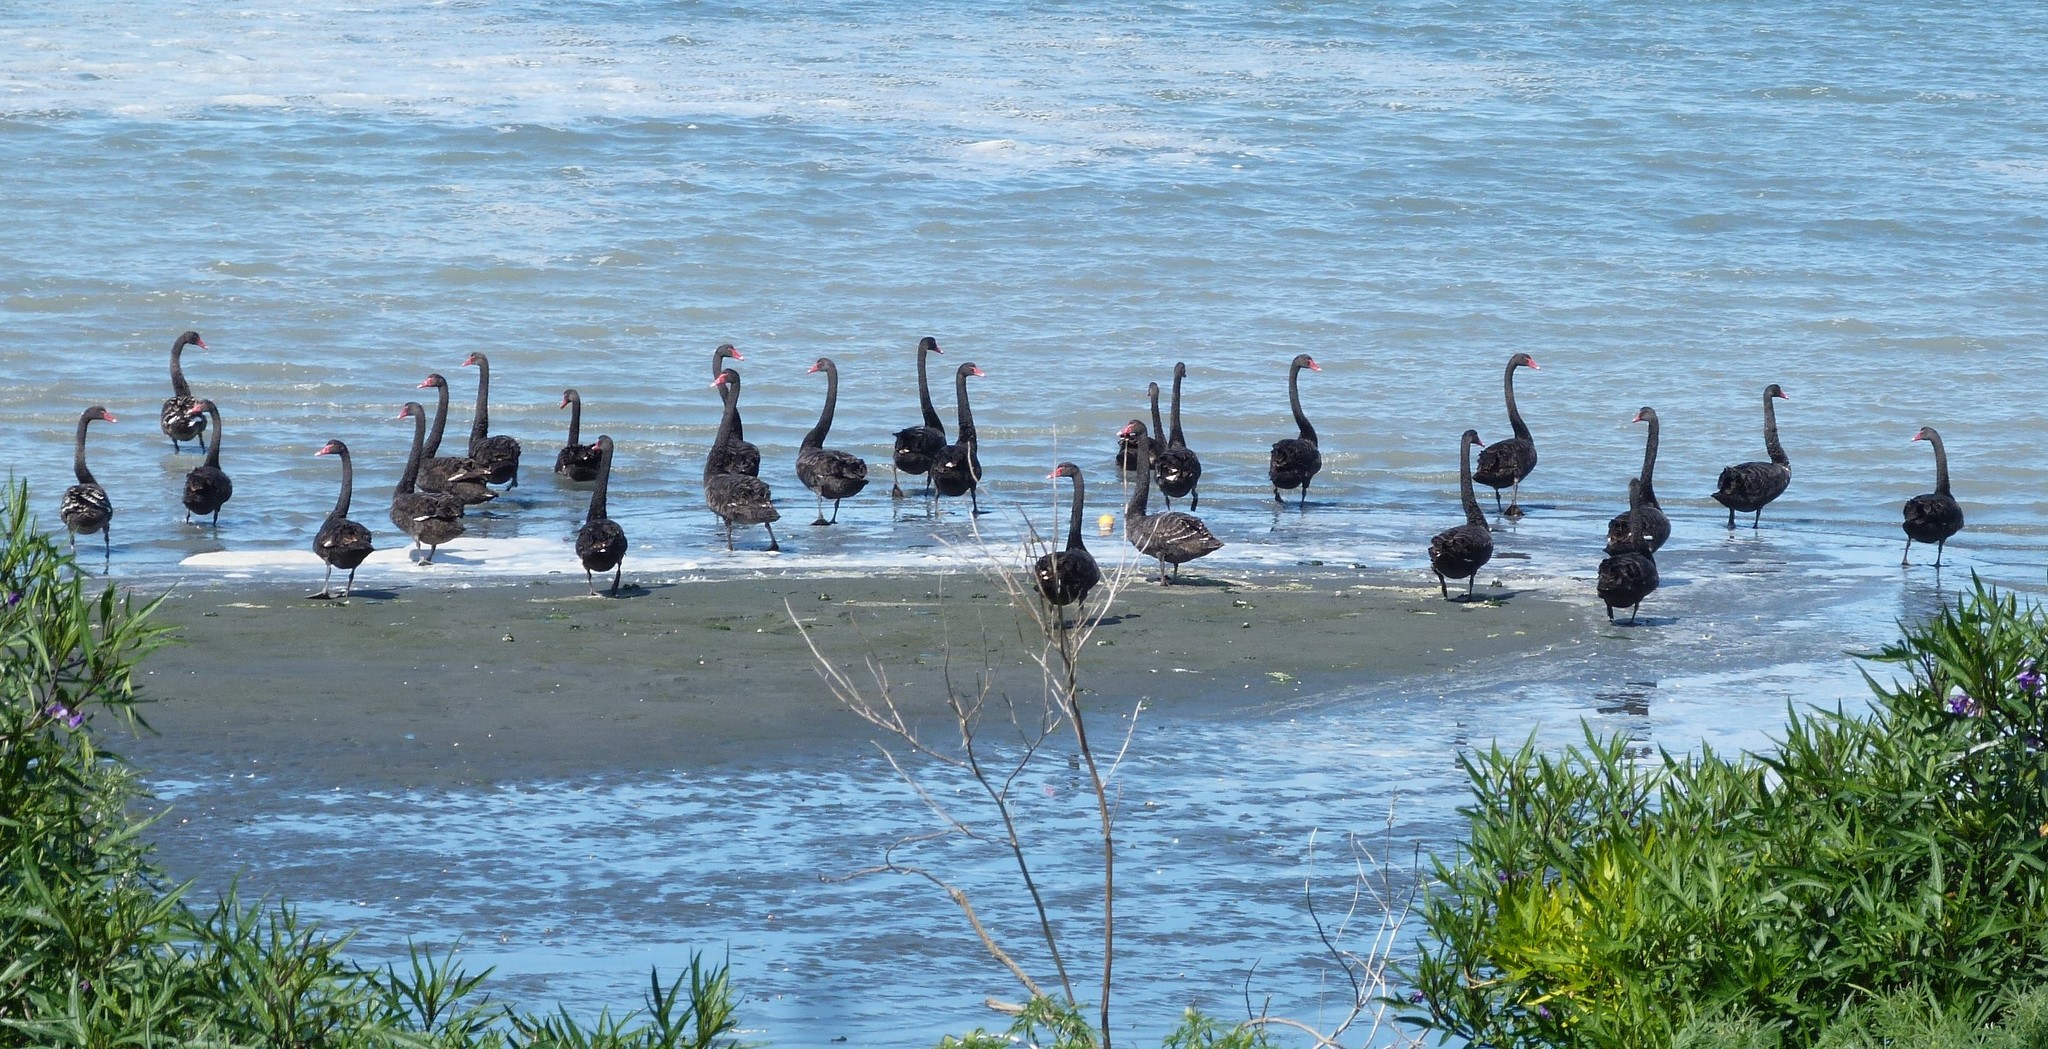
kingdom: Animalia
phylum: Chordata
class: Aves
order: Anseriformes
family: Anatidae
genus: Cygnus
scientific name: Cygnus atratus
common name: Black swan
